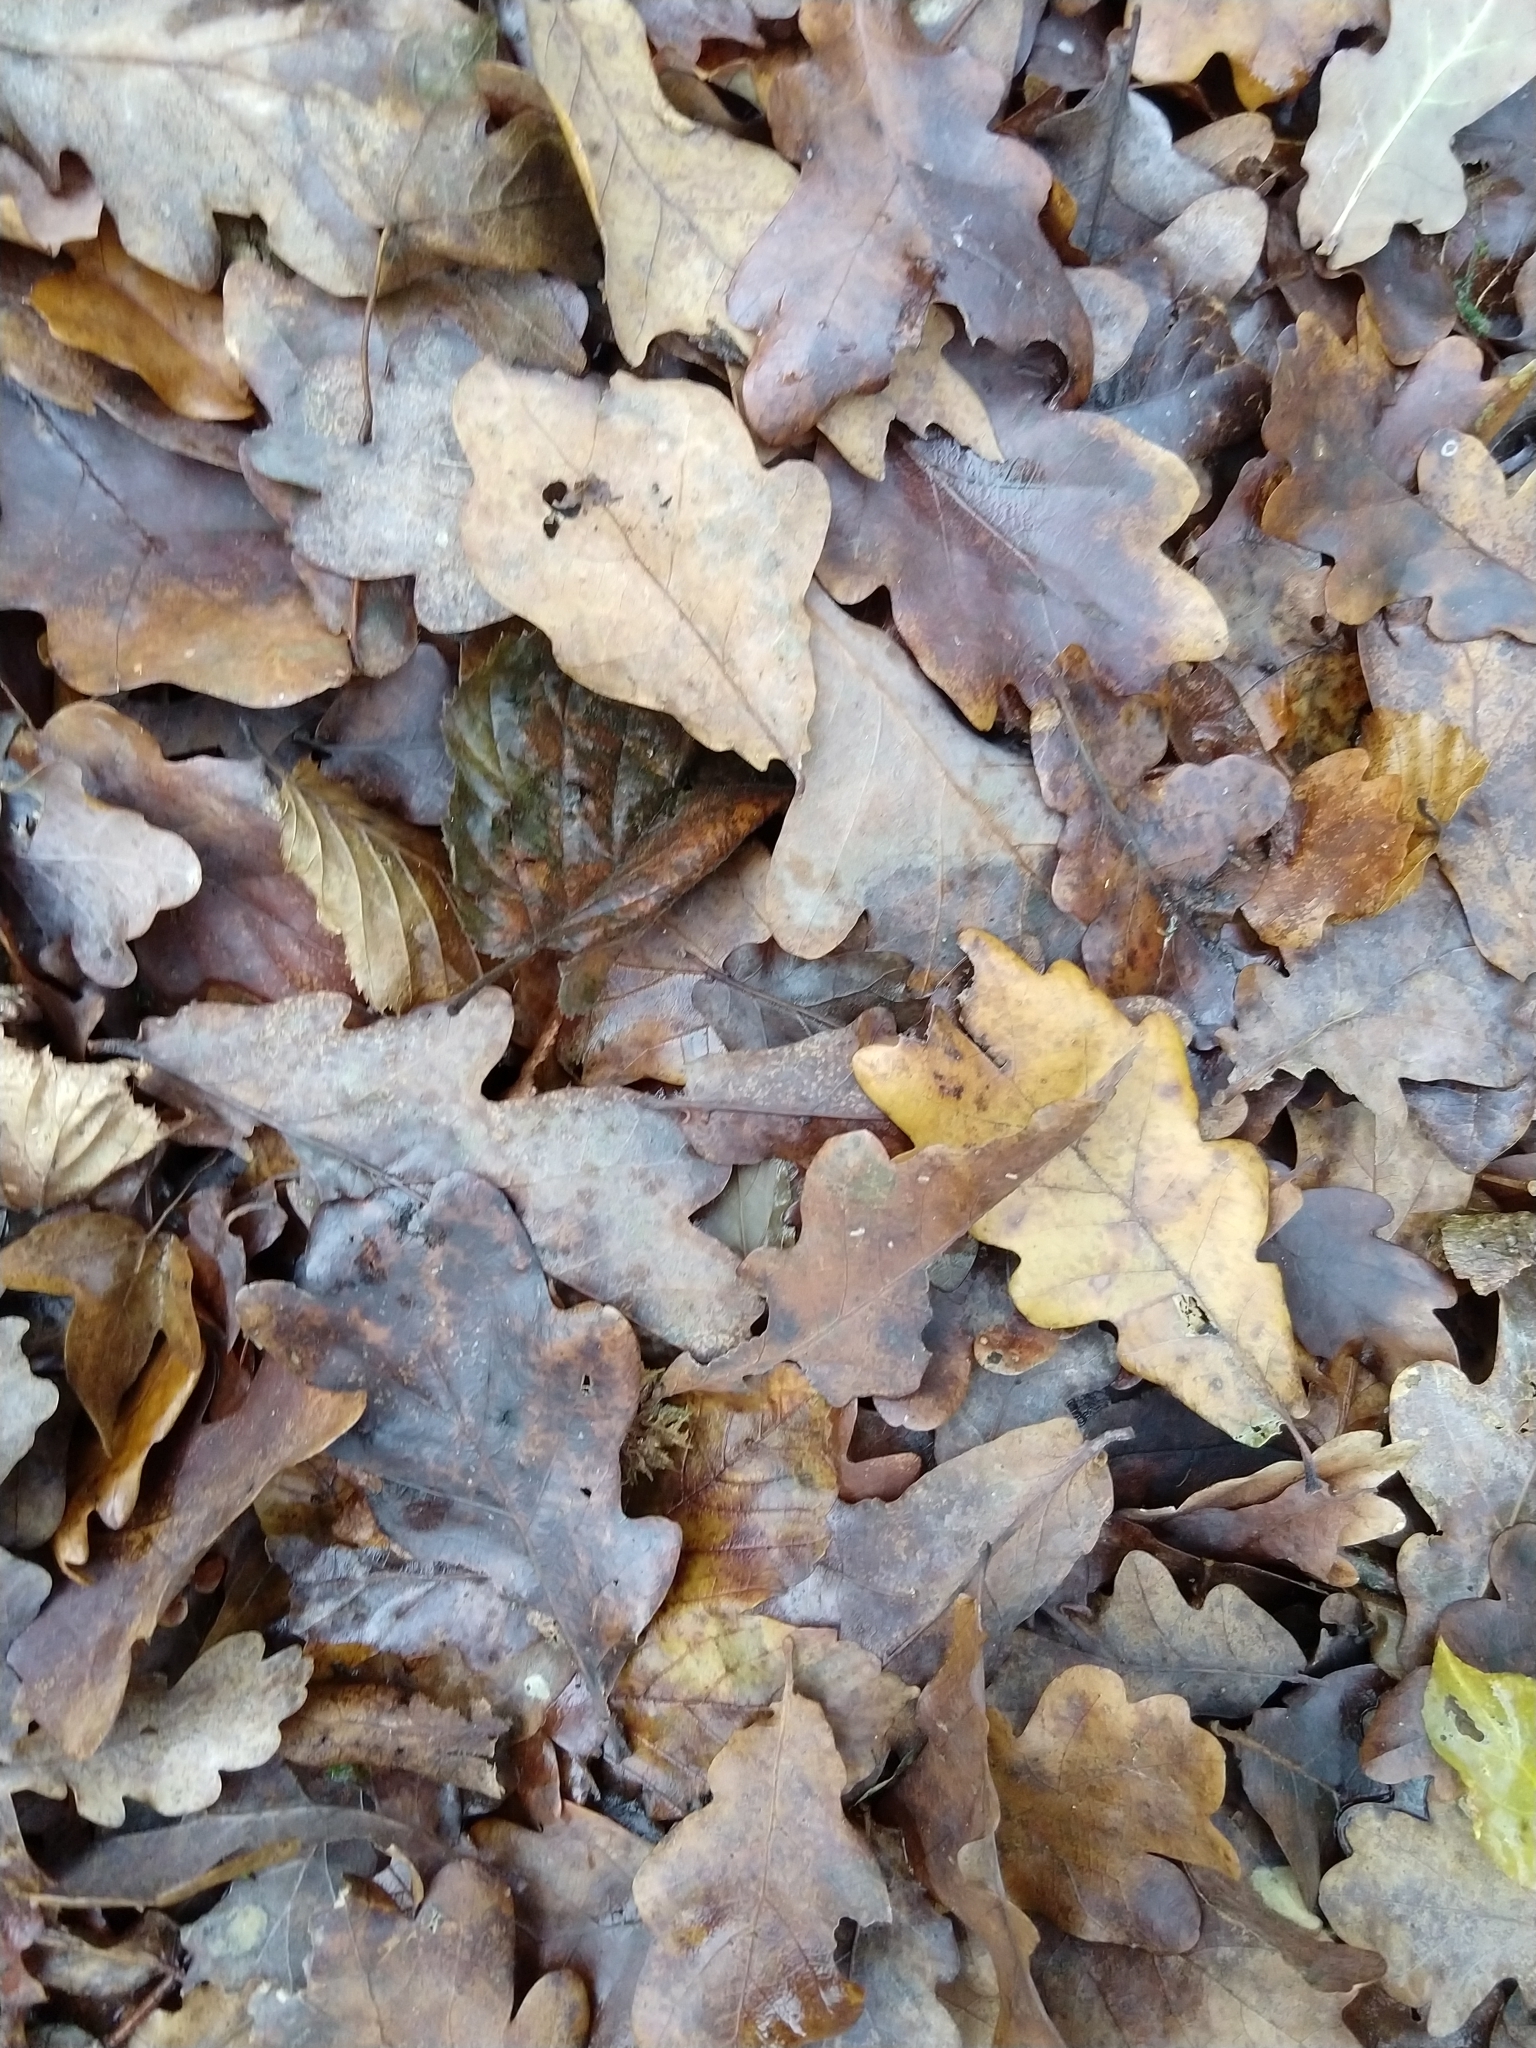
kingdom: Plantae
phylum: Tracheophyta
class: Magnoliopsida
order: Fagales
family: Fagaceae
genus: Quercus
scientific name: Quercus robur
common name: Pedunculate oak
